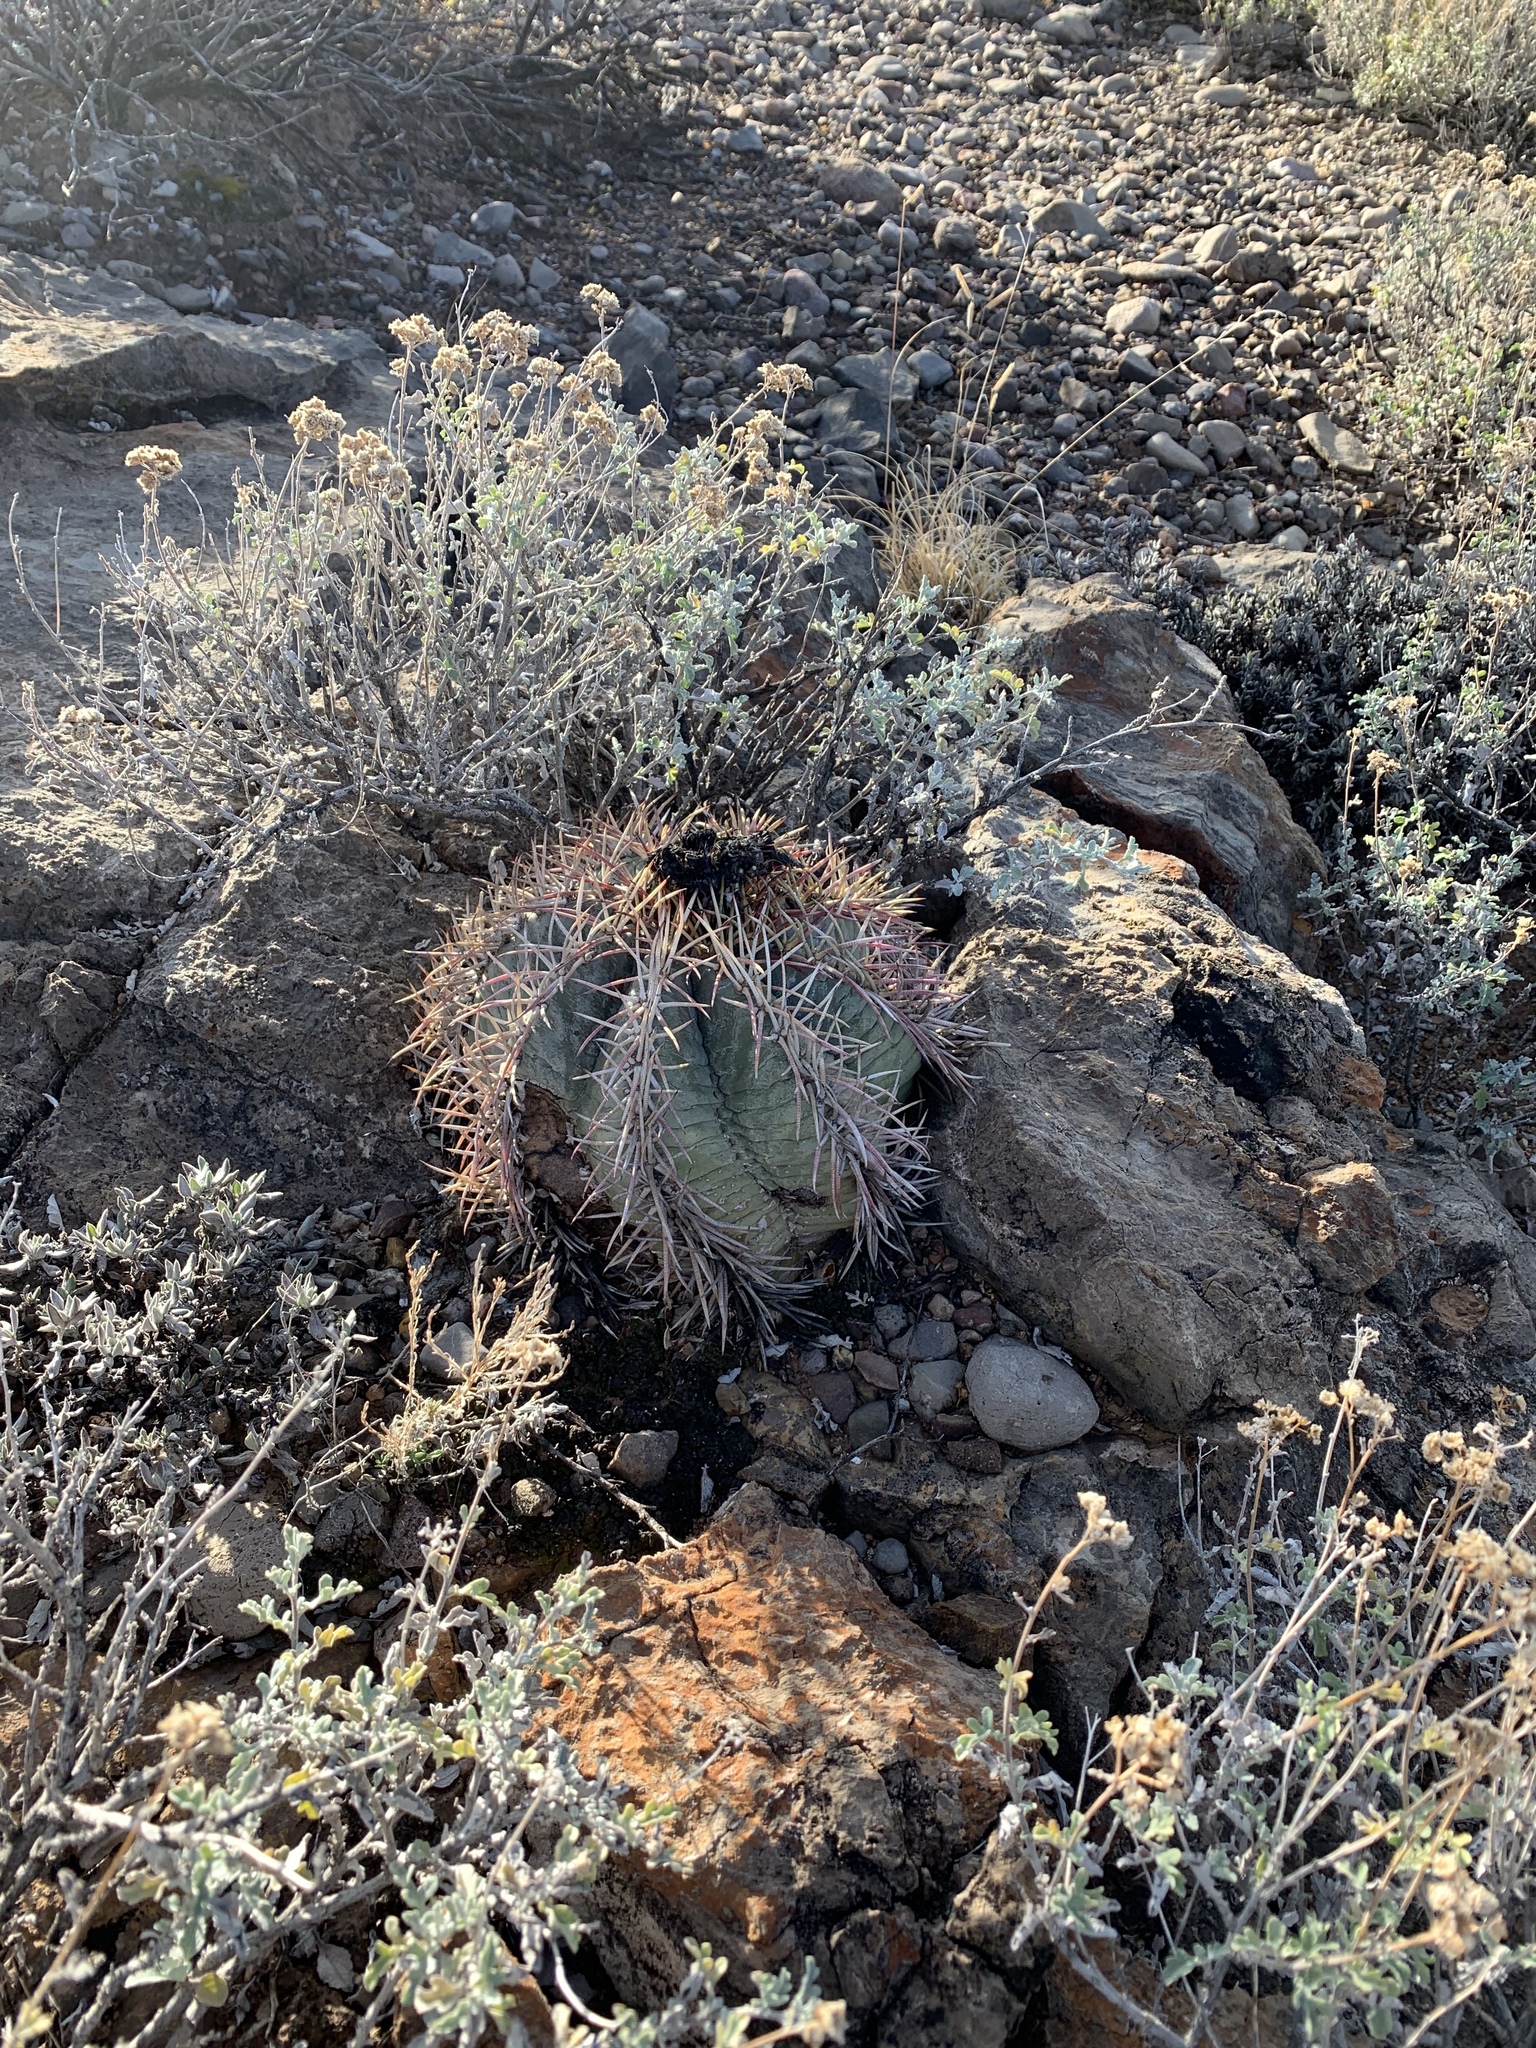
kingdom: Plantae
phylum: Tracheophyta
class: Magnoliopsida
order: Caryophyllales
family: Cactaceae
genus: Echinocactus
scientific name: Echinocactus horizonthalonius
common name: Devilshead
